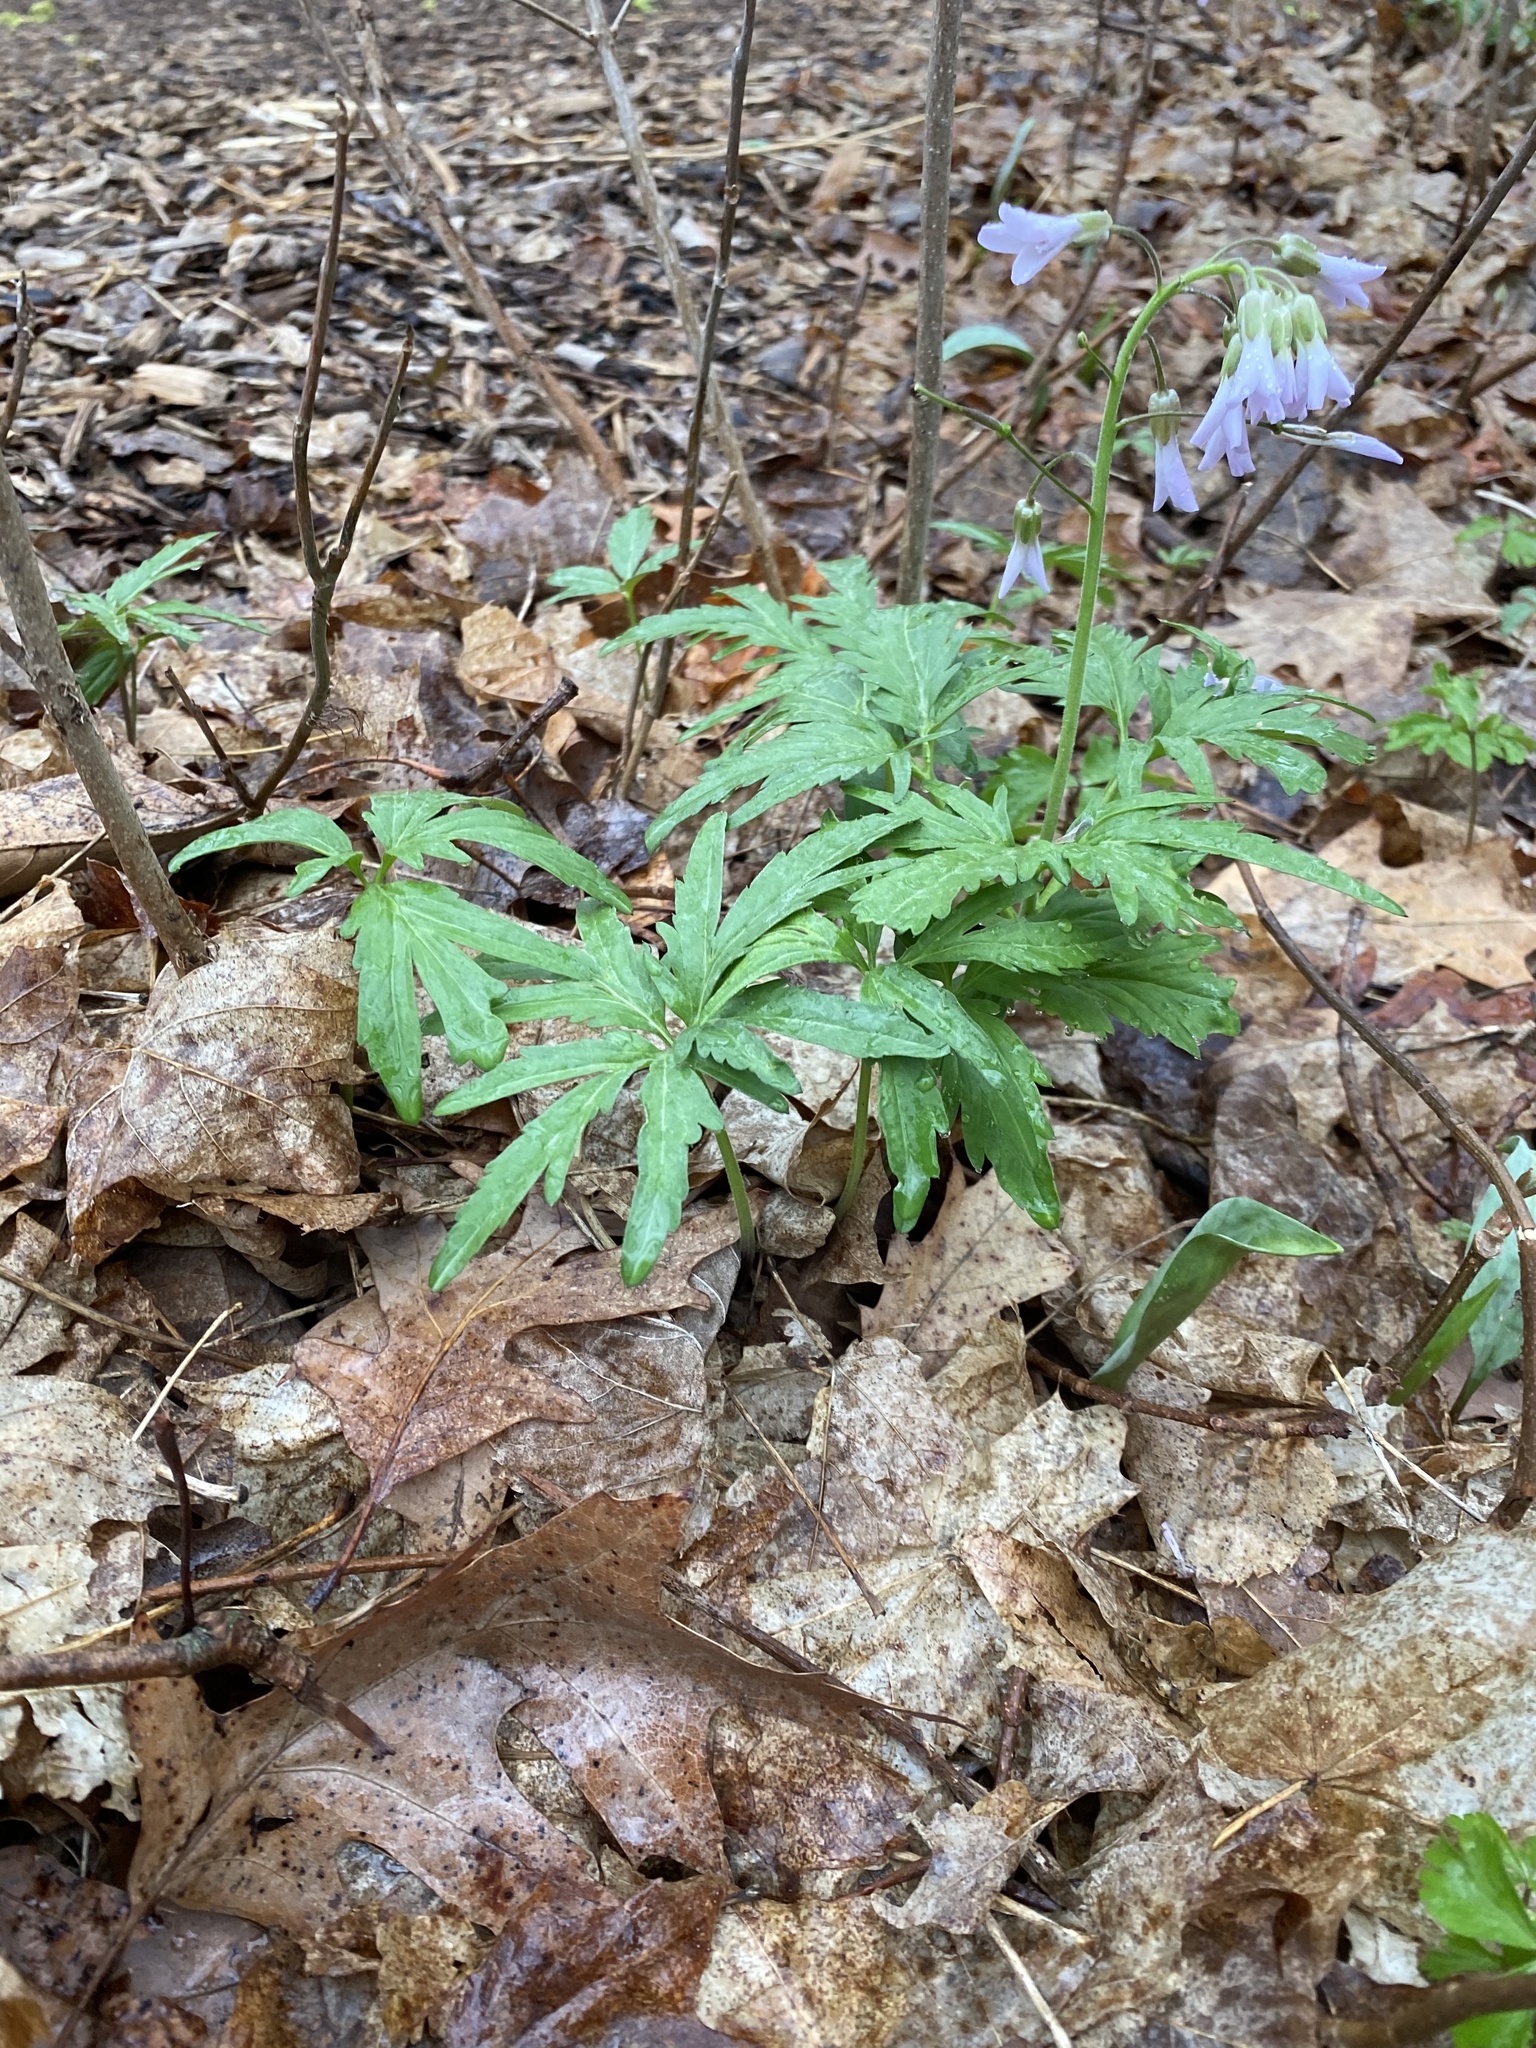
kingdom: Plantae
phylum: Tracheophyta
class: Magnoliopsida
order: Brassicales
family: Brassicaceae
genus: Cardamine
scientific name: Cardamine concatenata
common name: Cut-leaf toothcup
